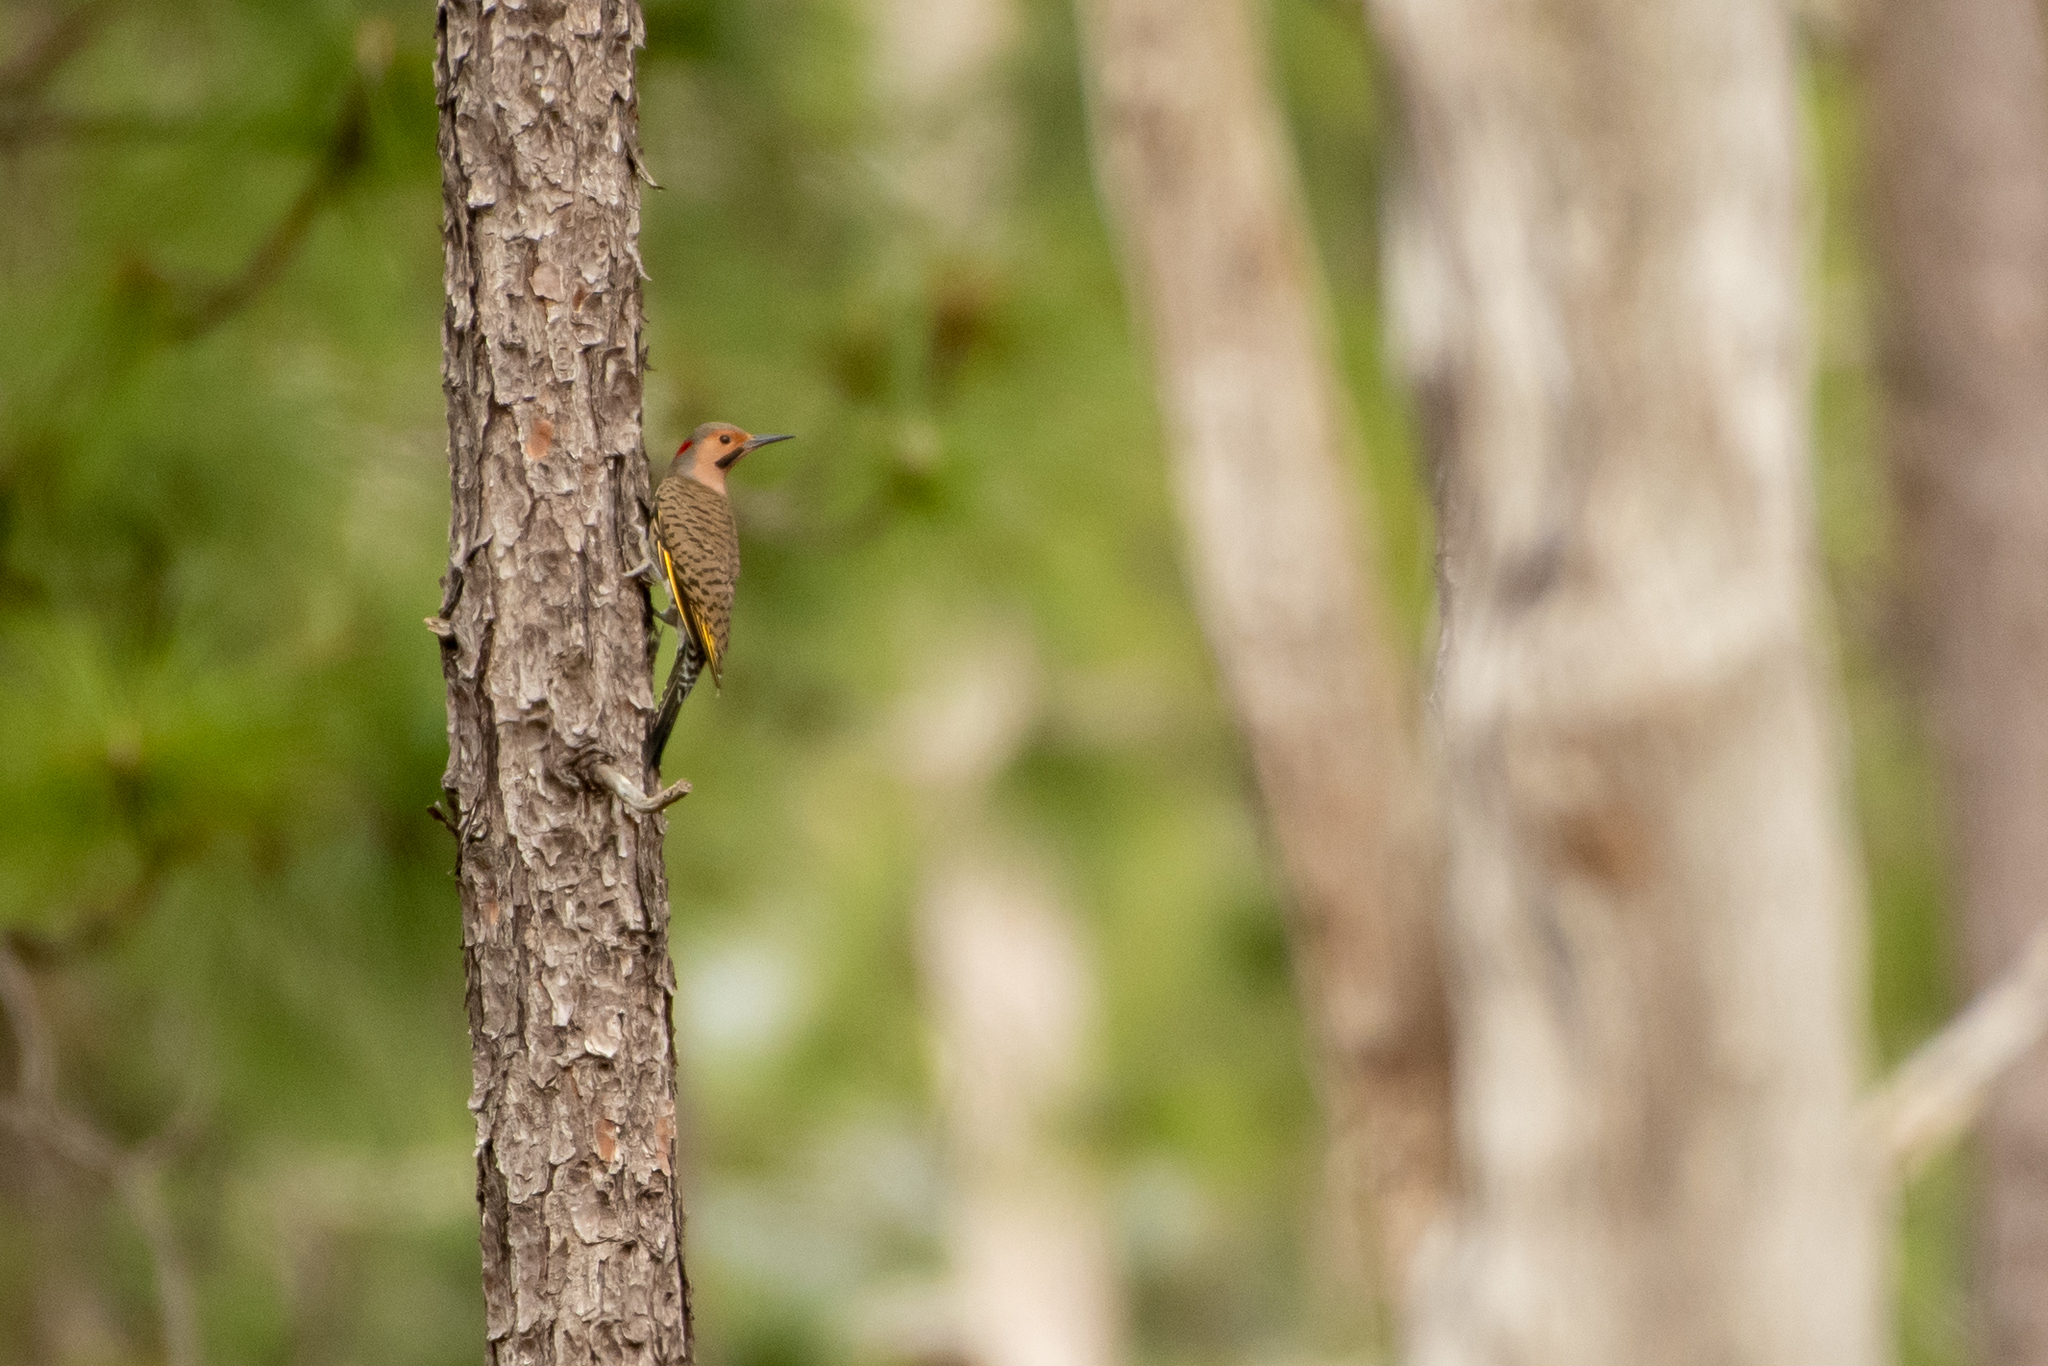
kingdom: Animalia
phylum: Chordata
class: Aves
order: Piciformes
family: Picidae
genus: Colaptes
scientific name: Colaptes auratus
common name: Northern flicker
